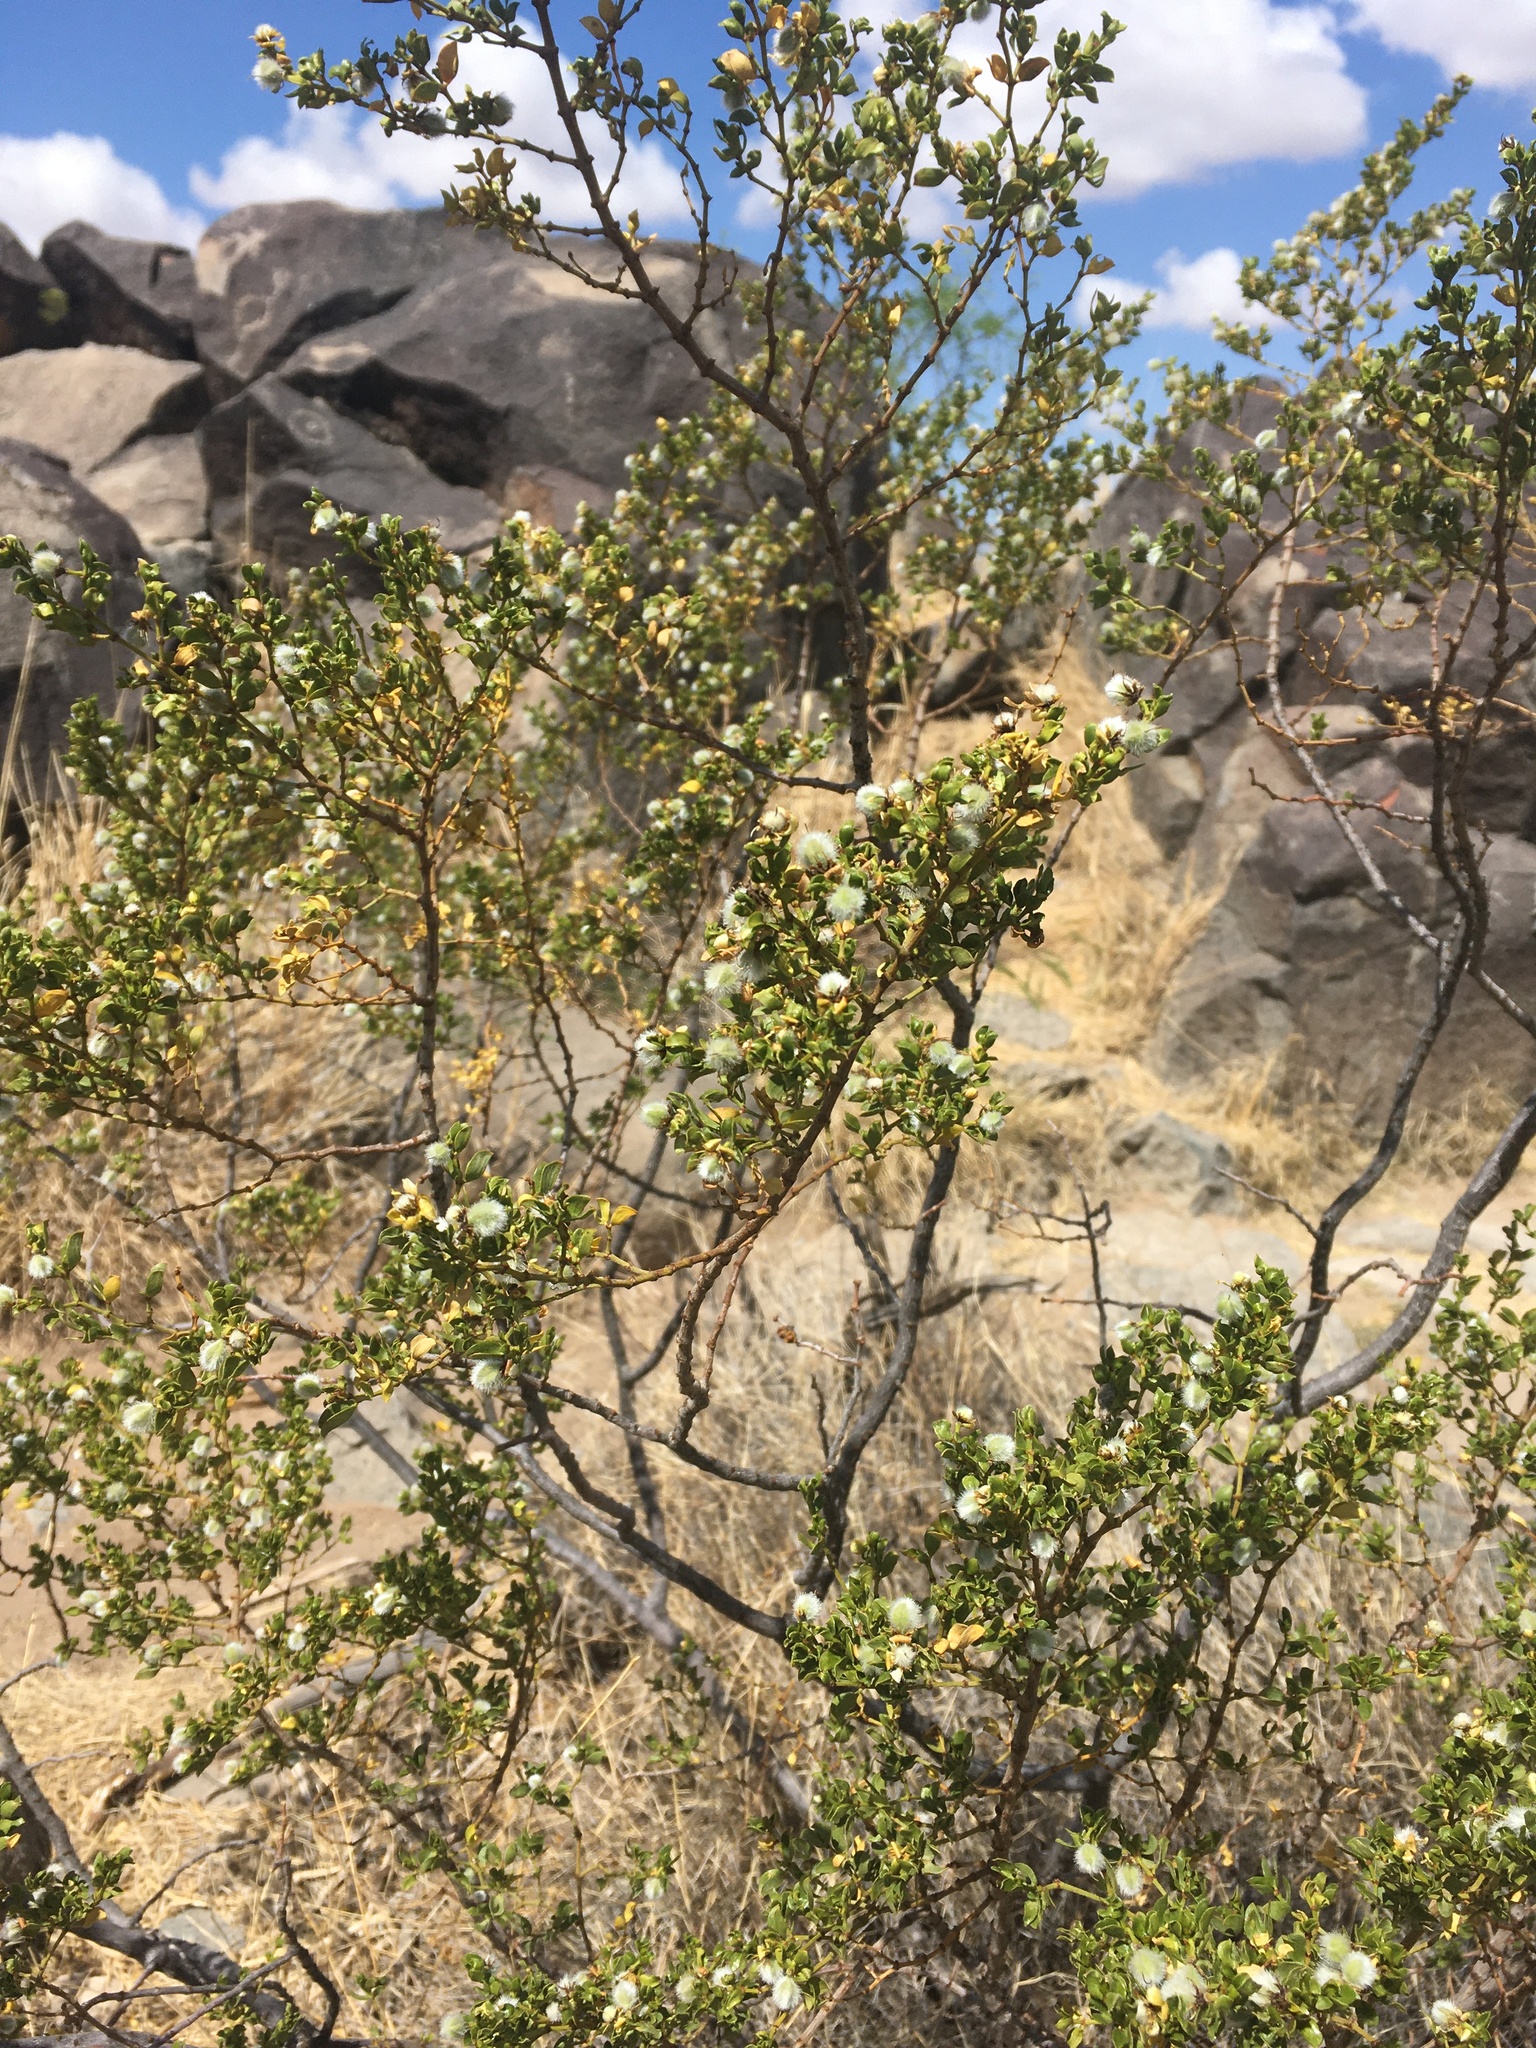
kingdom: Plantae
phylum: Tracheophyta
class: Magnoliopsida
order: Zygophyllales
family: Zygophyllaceae
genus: Larrea
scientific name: Larrea tridentata
